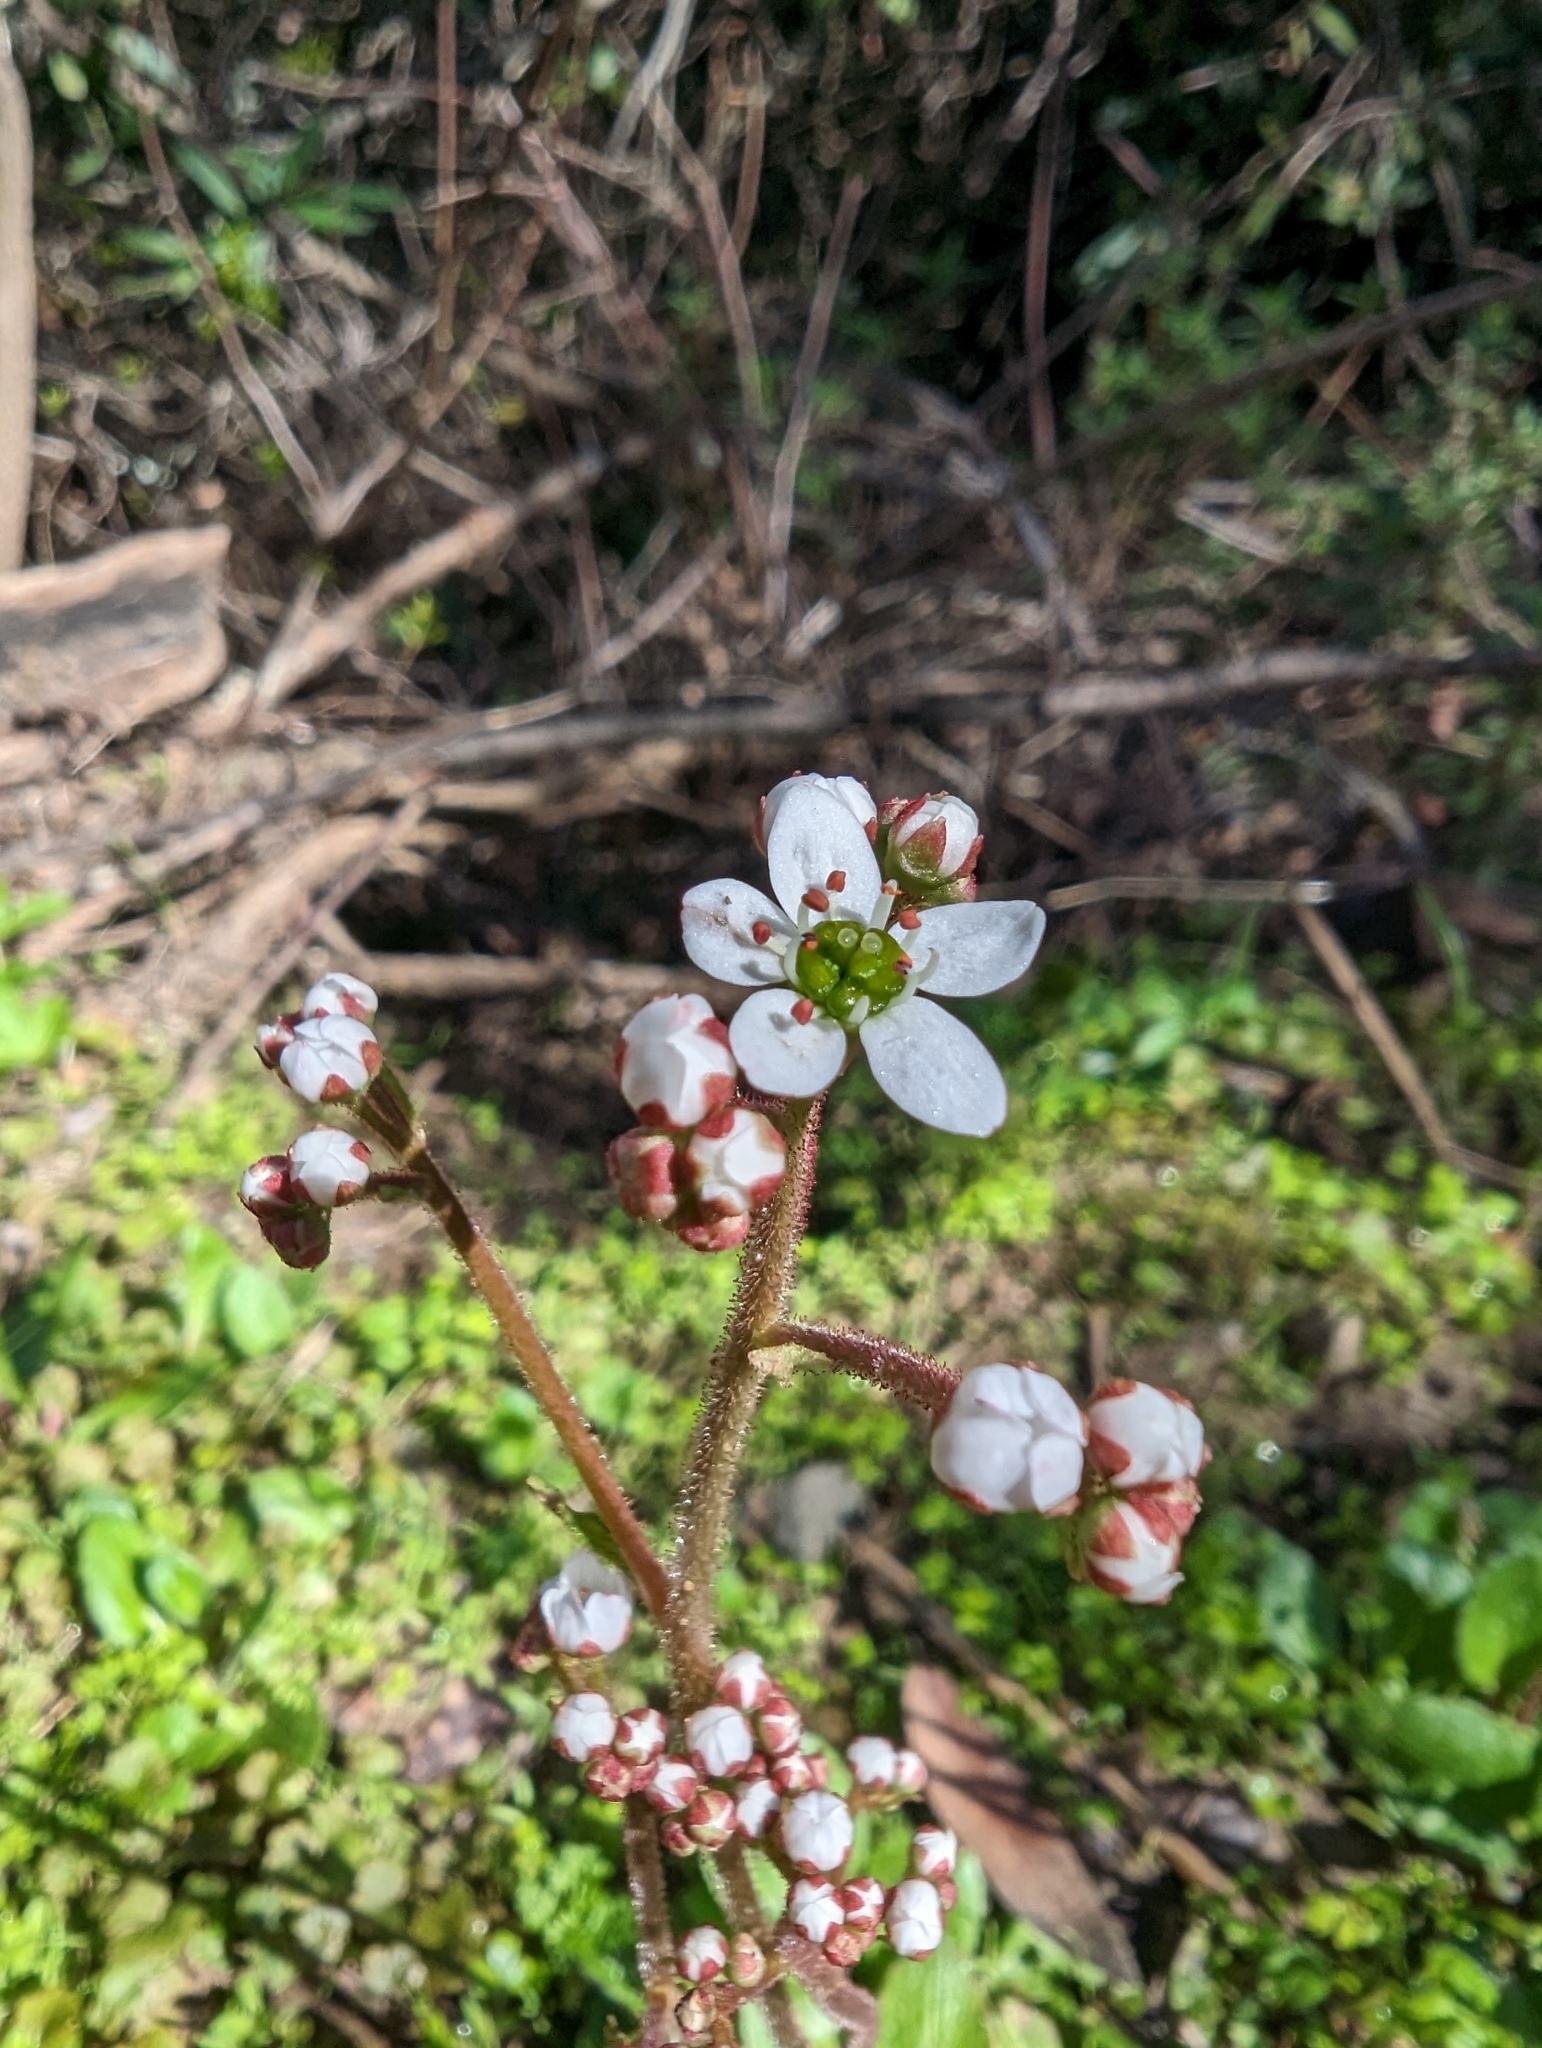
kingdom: Plantae
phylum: Tracheophyta
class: Magnoliopsida
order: Saxifragales
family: Saxifragaceae
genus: Micranthes
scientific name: Micranthes californica
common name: California saxifrage
